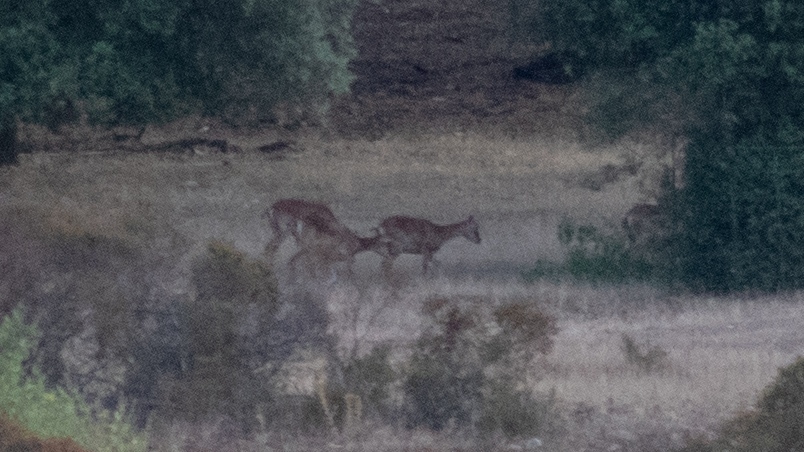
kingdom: Animalia
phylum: Chordata
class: Mammalia
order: Artiodactyla
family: Bovidae
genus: Ovis
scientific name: Ovis aries
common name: Domestic sheep
